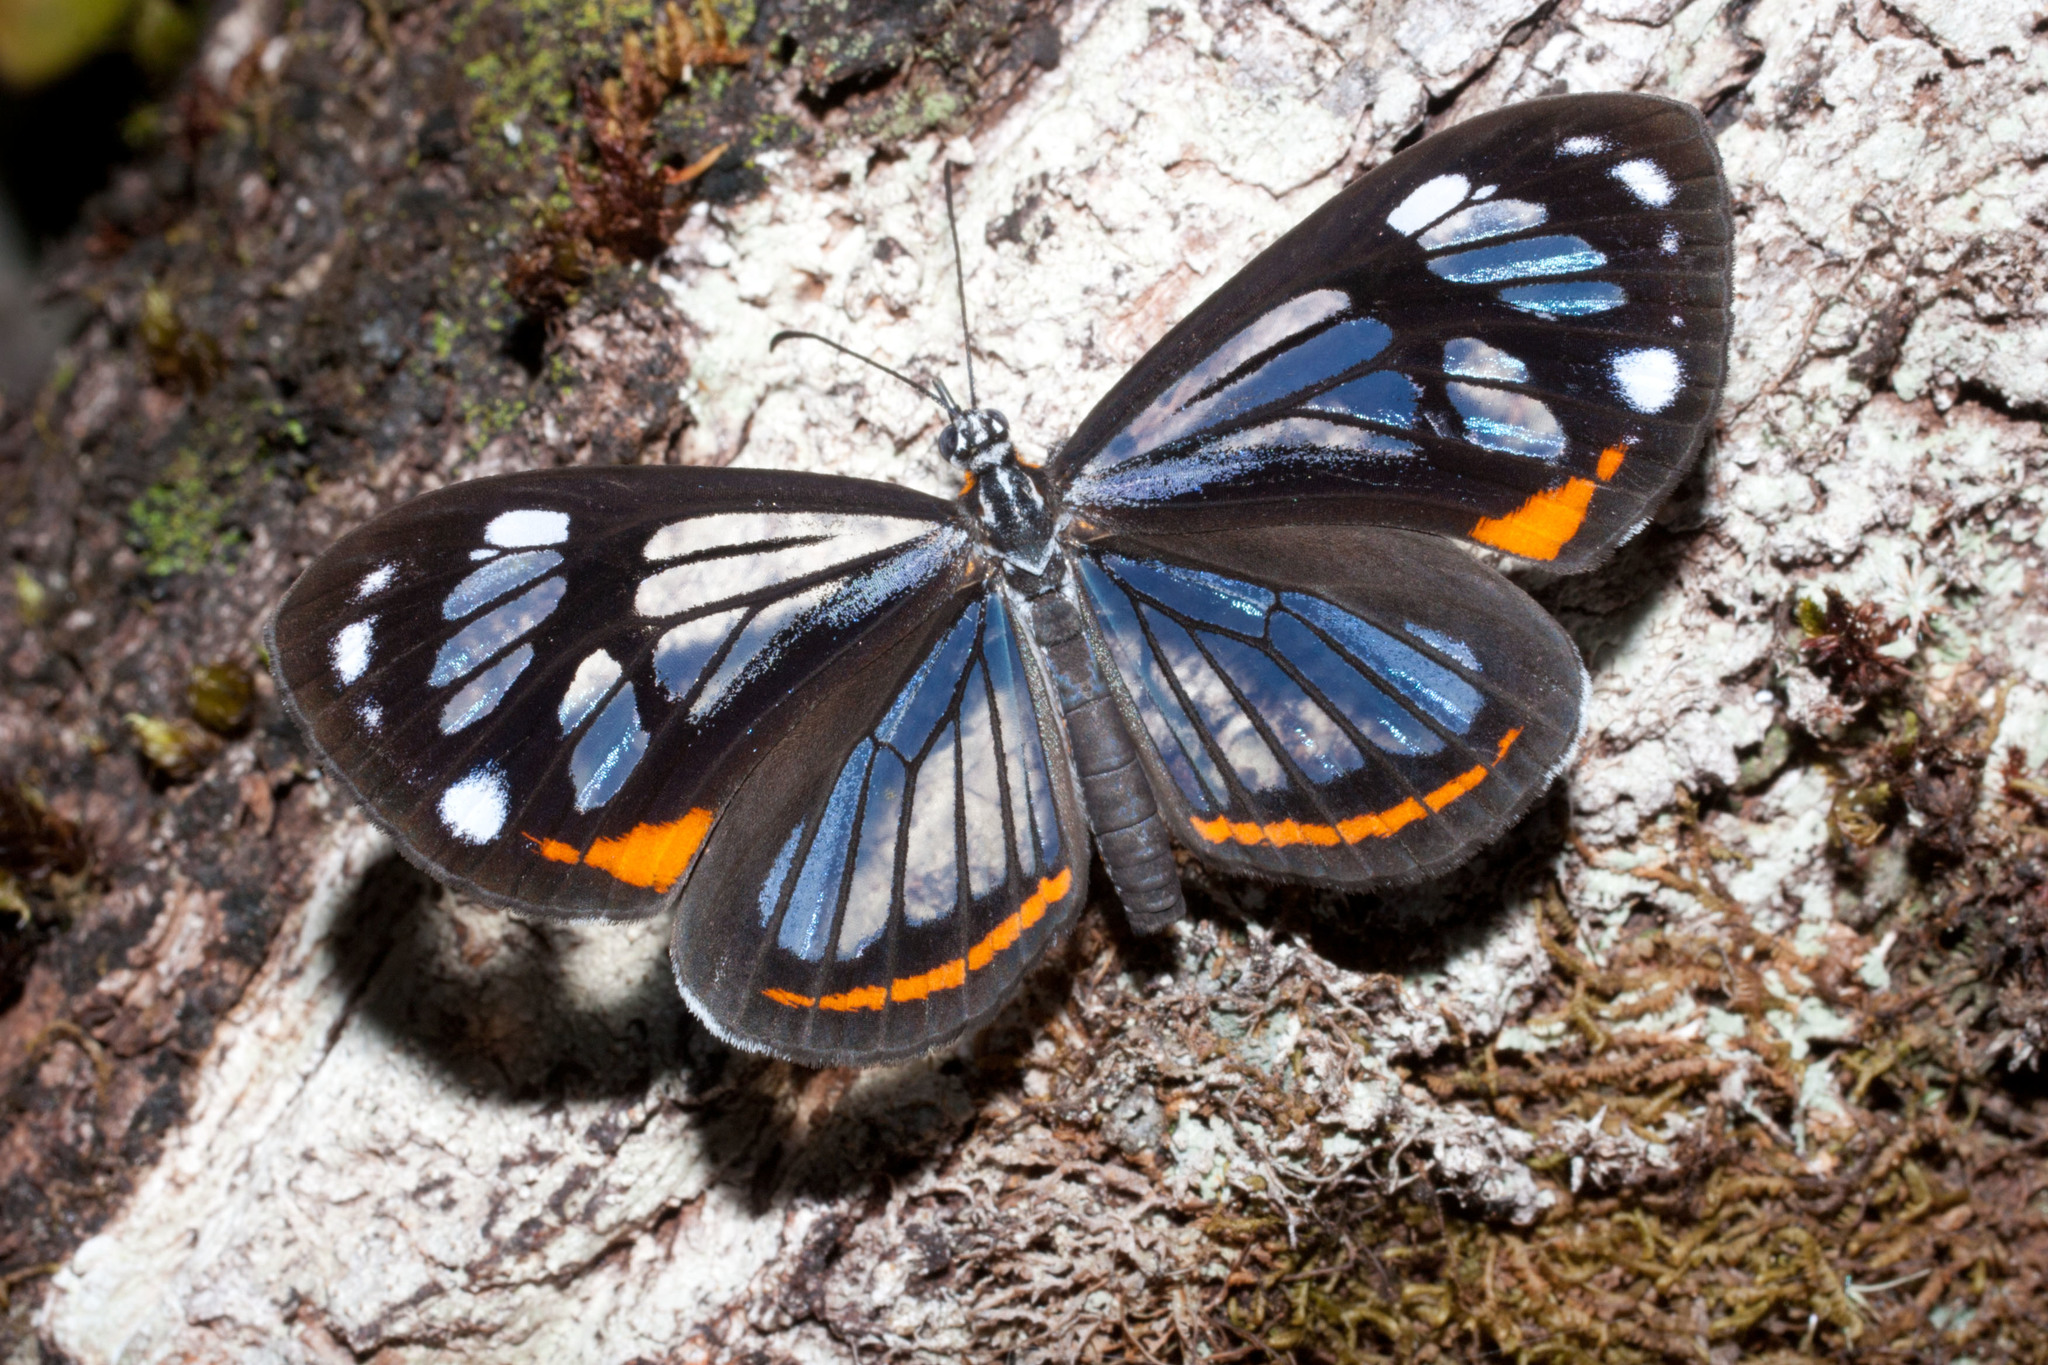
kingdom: Animalia
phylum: Arthropoda
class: Insecta
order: Lepidoptera
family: Riodinidae
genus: Stalachtis
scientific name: Stalachtis zephyritis
